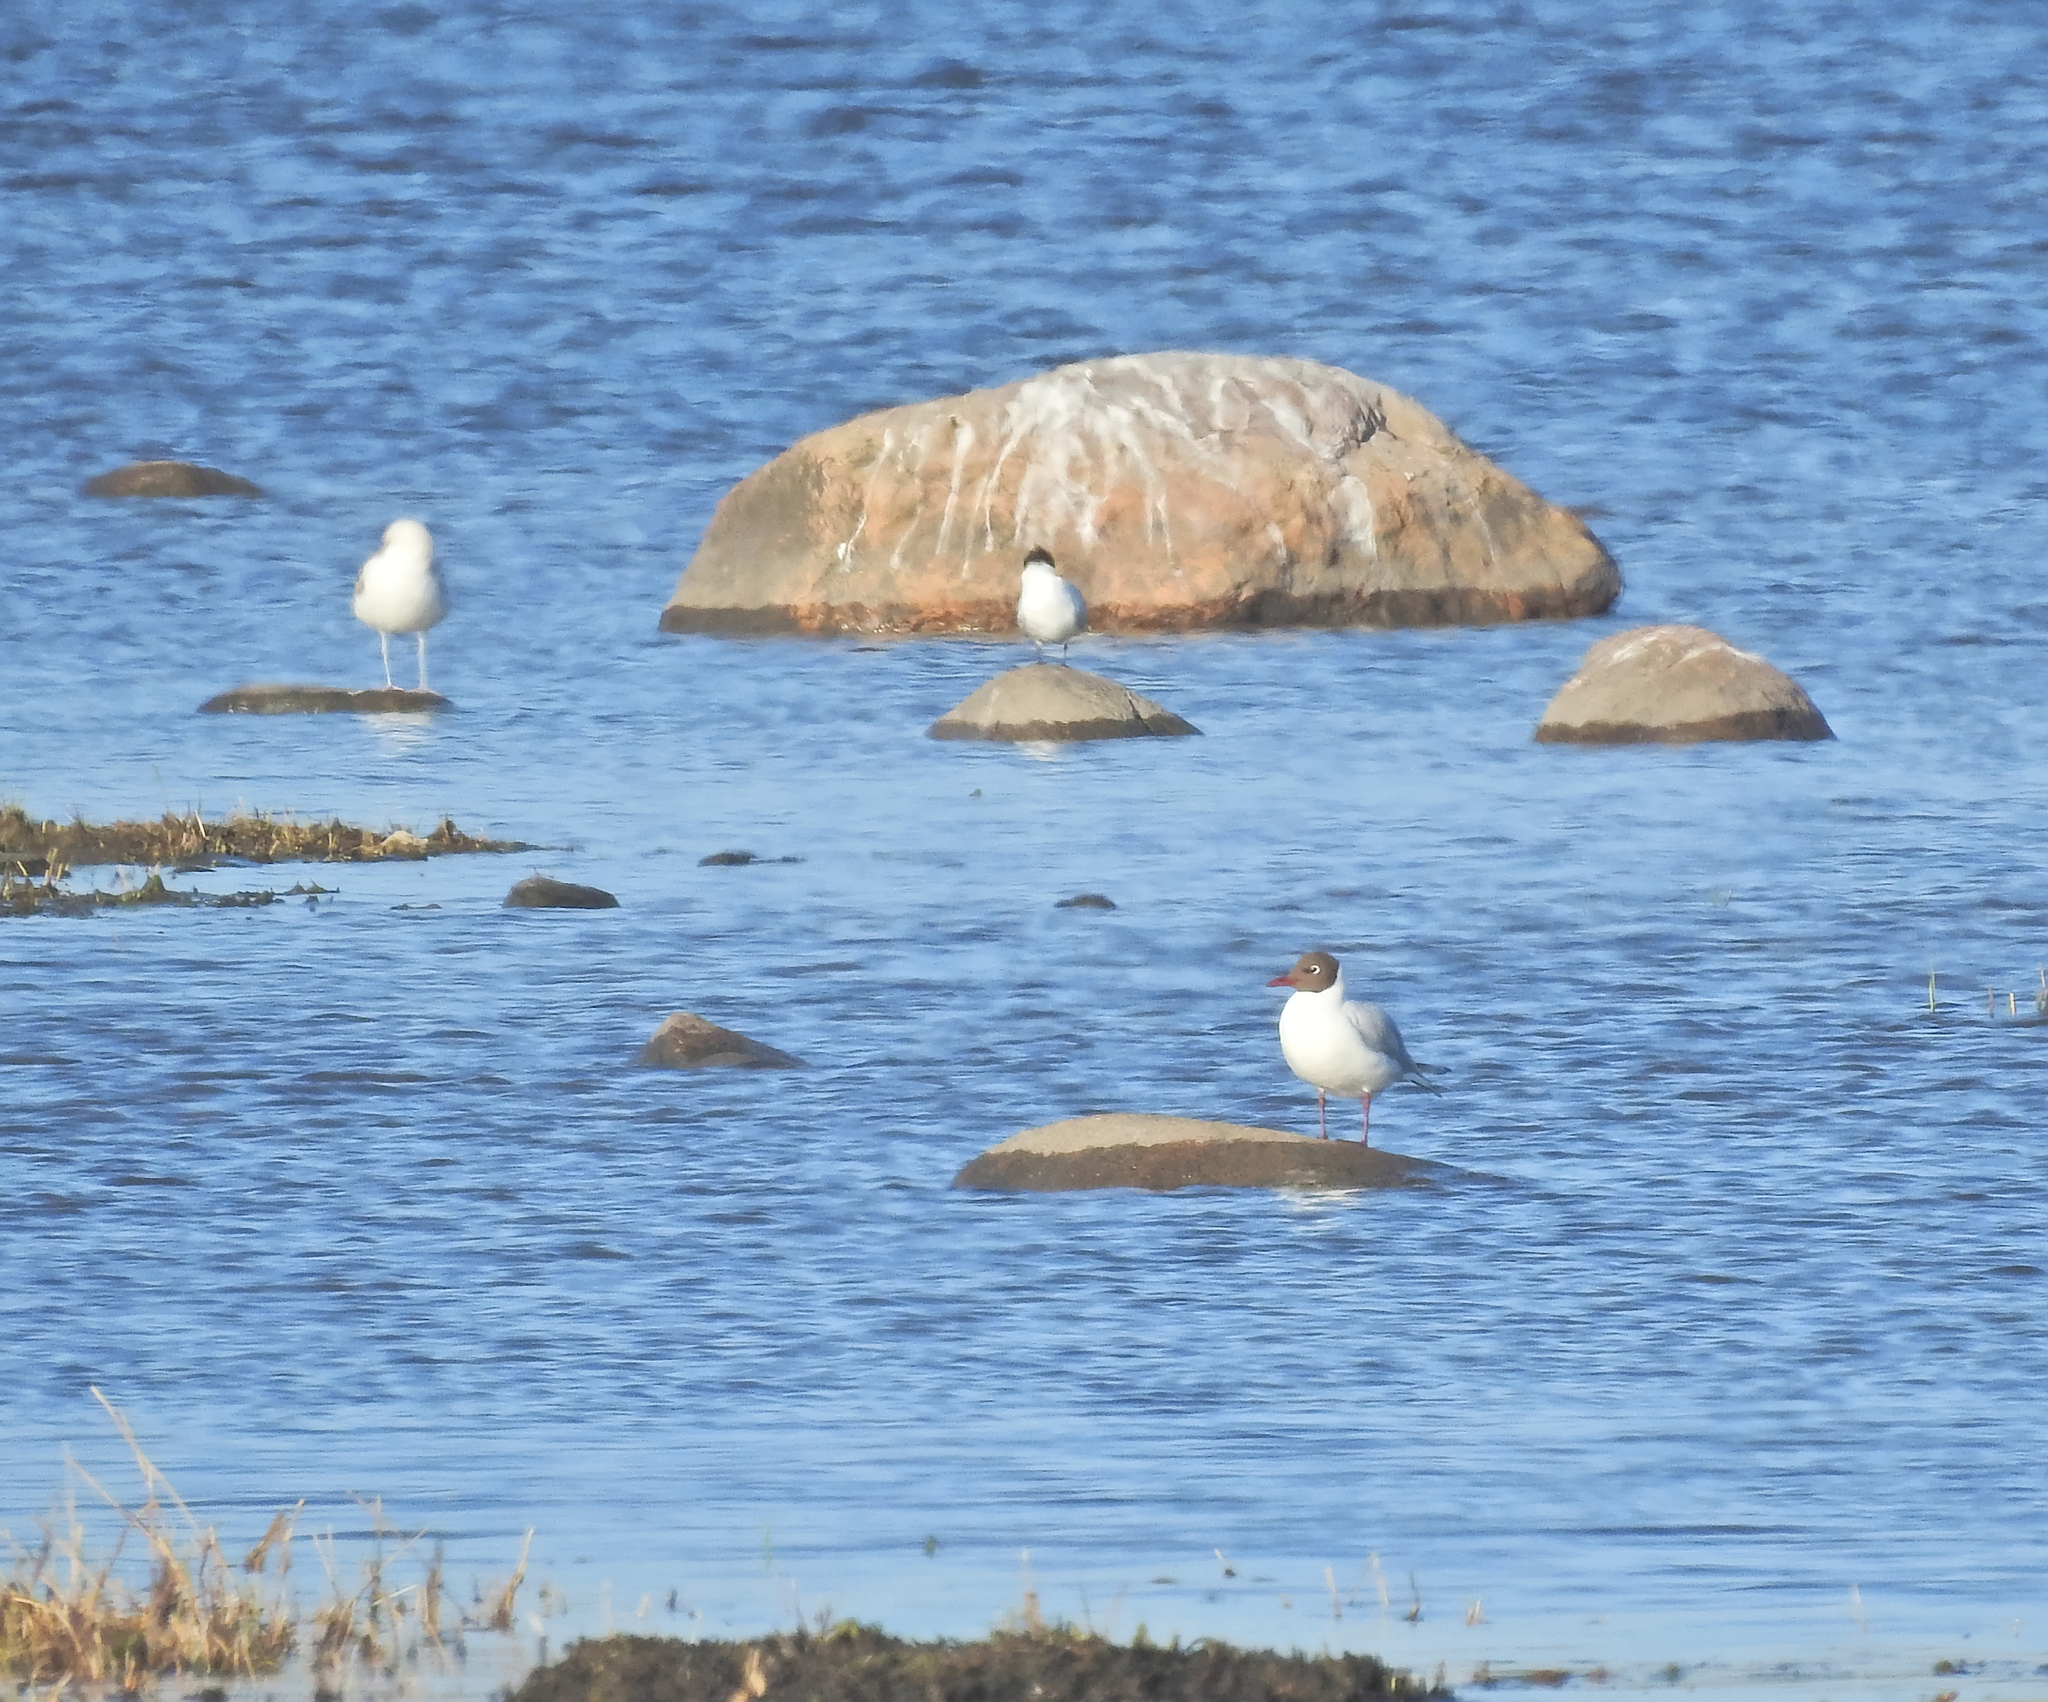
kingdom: Animalia
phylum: Chordata
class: Aves
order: Charadriiformes
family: Laridae
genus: Chroicocephalus
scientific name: Chroicocephalus ridibundus
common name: Black-headed gull
